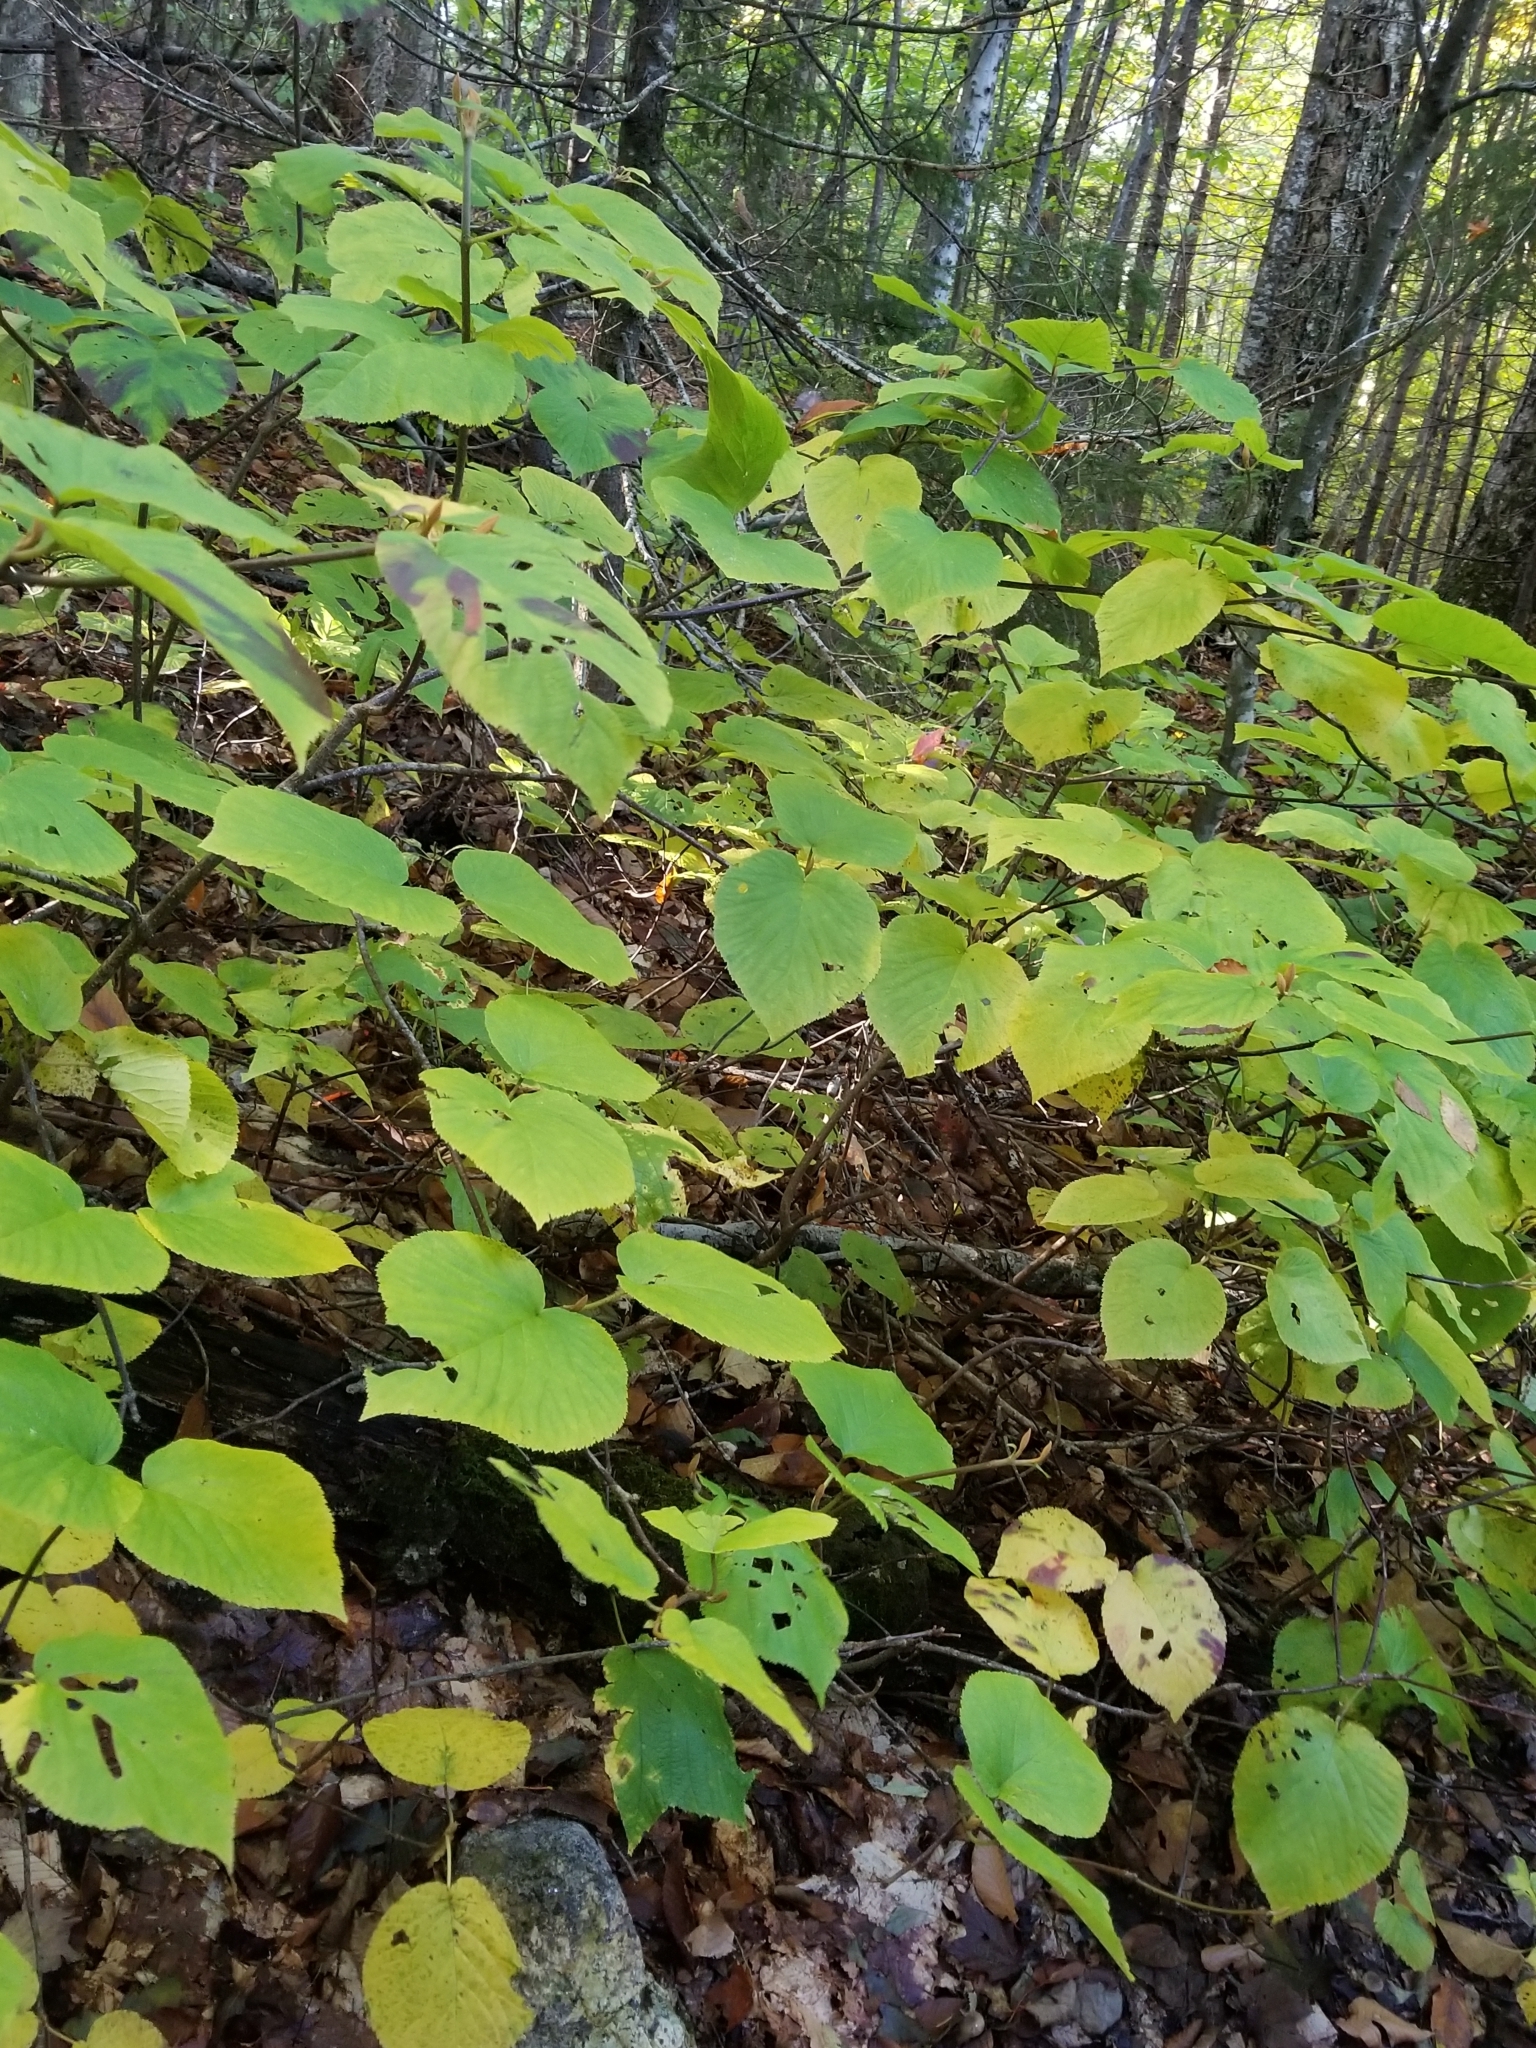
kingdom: Plantae
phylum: Tracheophyta
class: Magnoliopsida
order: Dipsacales
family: Viburnaceae
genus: Viburnum
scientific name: Viburnum lantanoides
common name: Hobblebush
